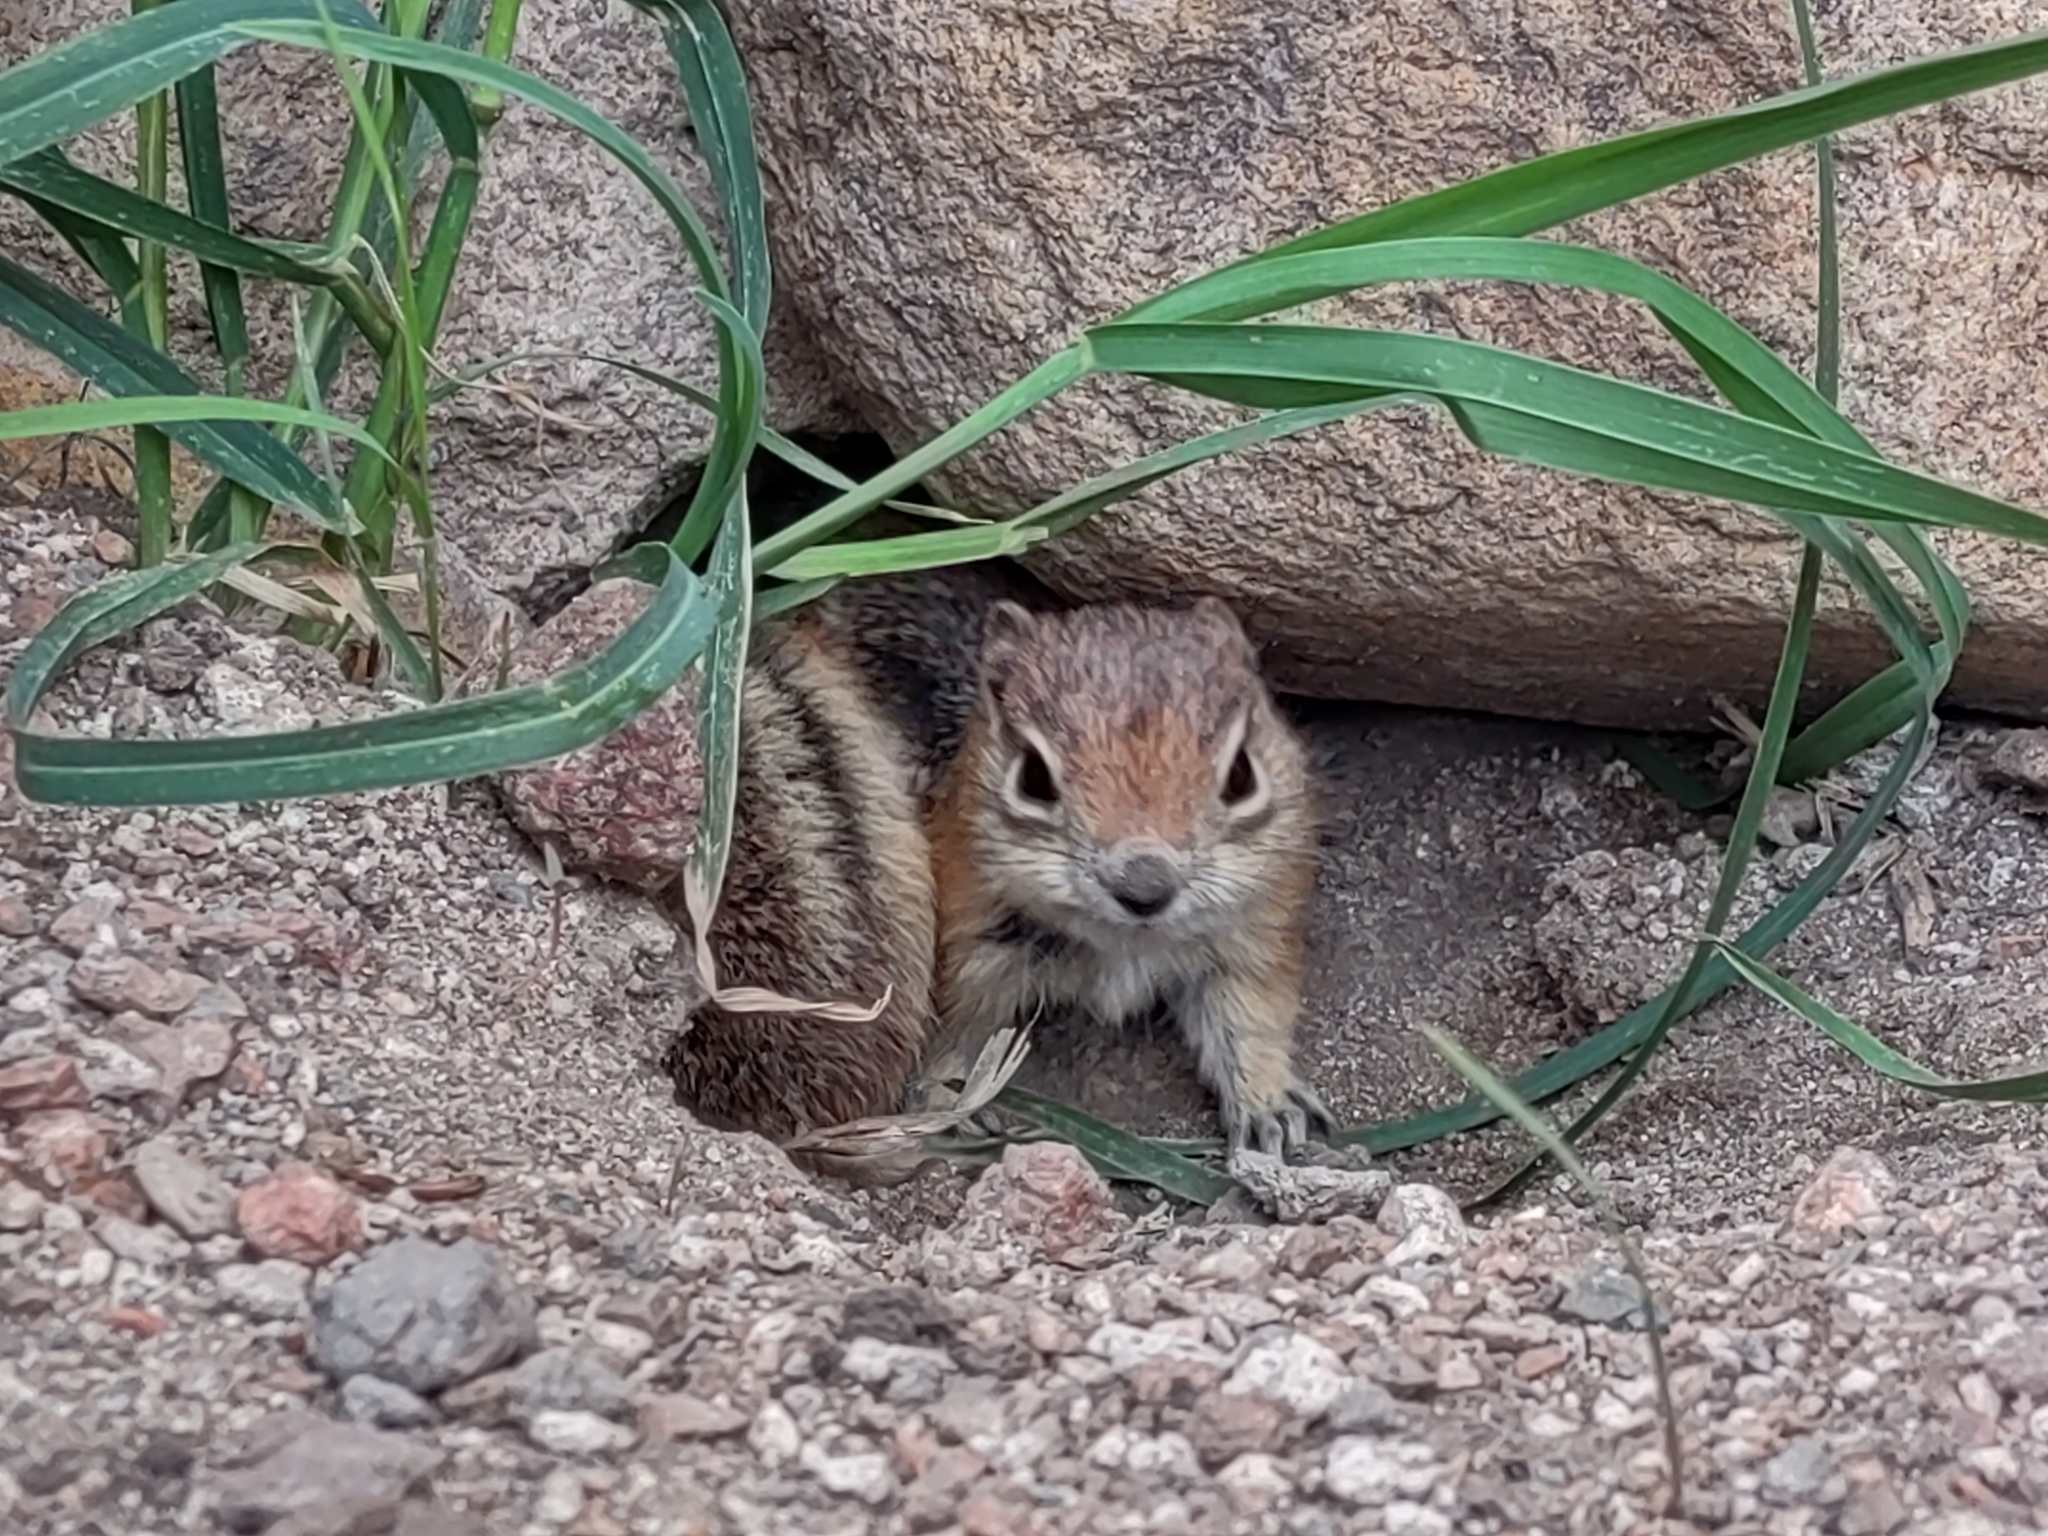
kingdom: Animalia
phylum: Chordata
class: Mammalia
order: Rodentia
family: Sciuridae
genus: Callospermophilus
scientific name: Callospermophilus lateralis
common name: Golden-mantled ground squirrel
